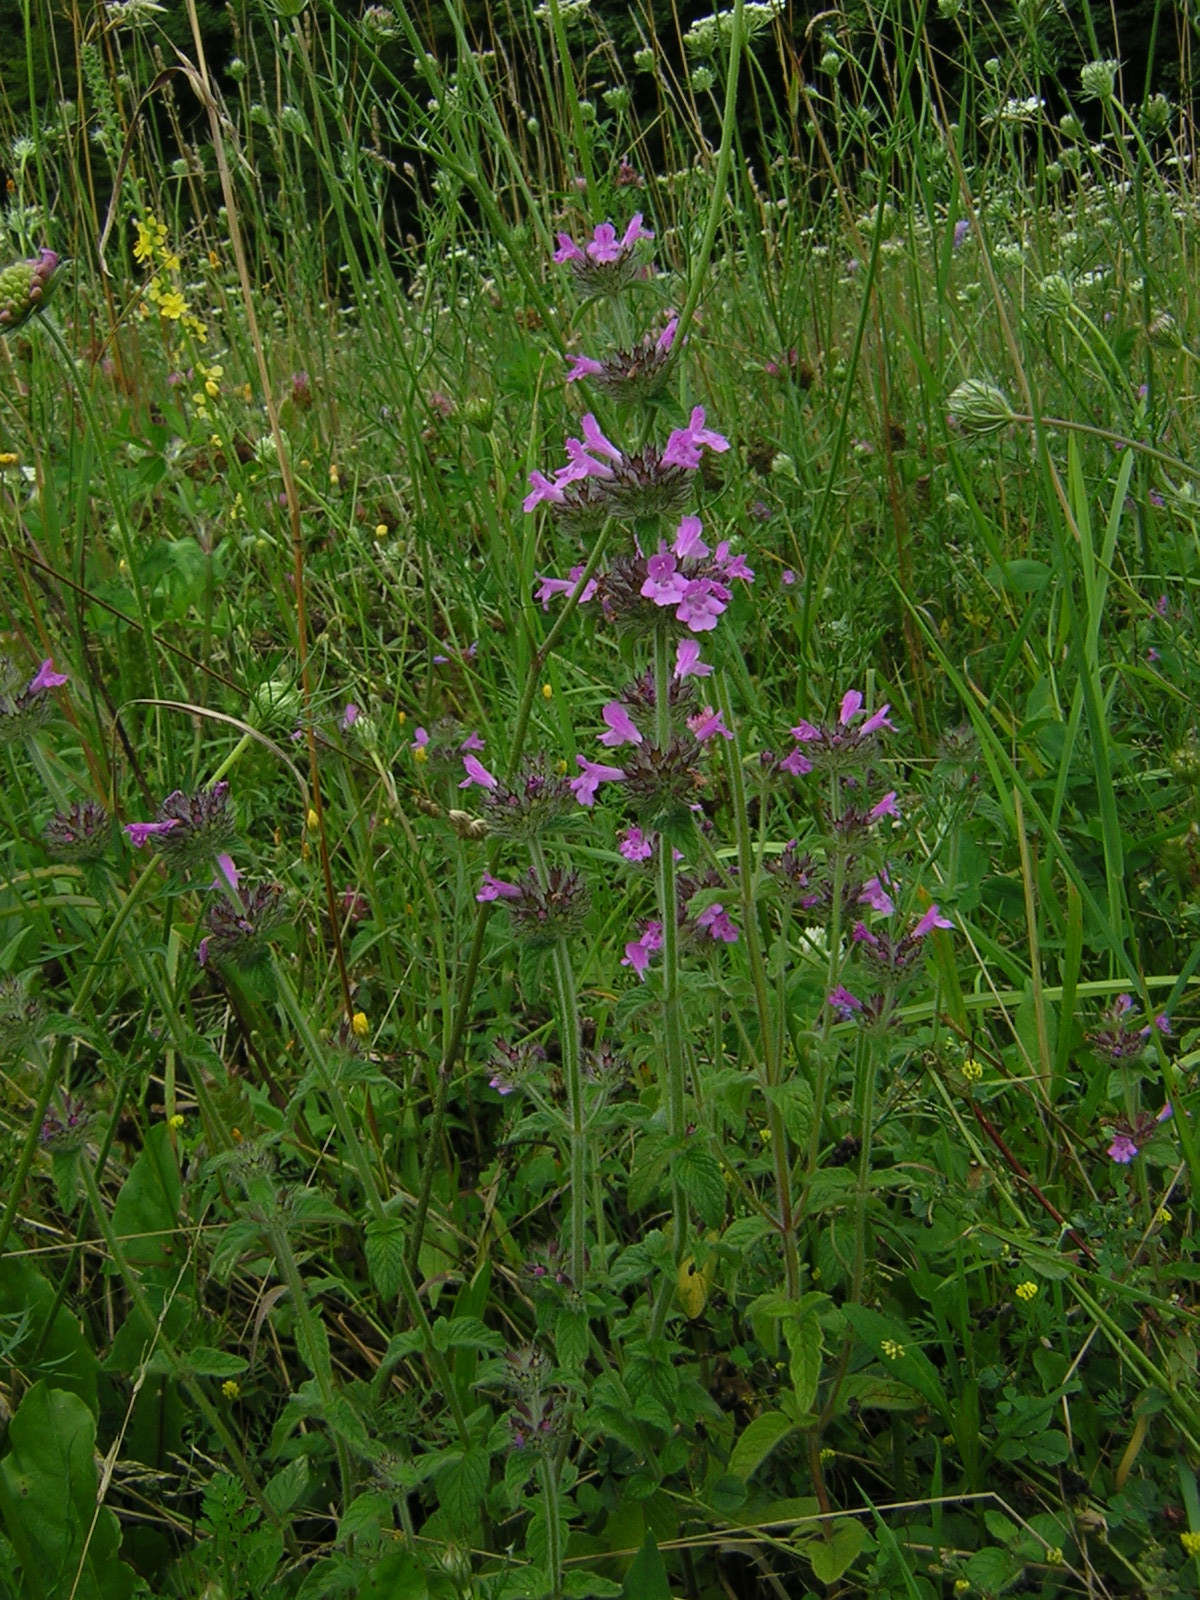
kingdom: Plantae
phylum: Tracheophyta
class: Magnoliopsida
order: Lamiales
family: Lamiaceae
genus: Clinopodium
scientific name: Clinopodium vulgare
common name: Wild basil
